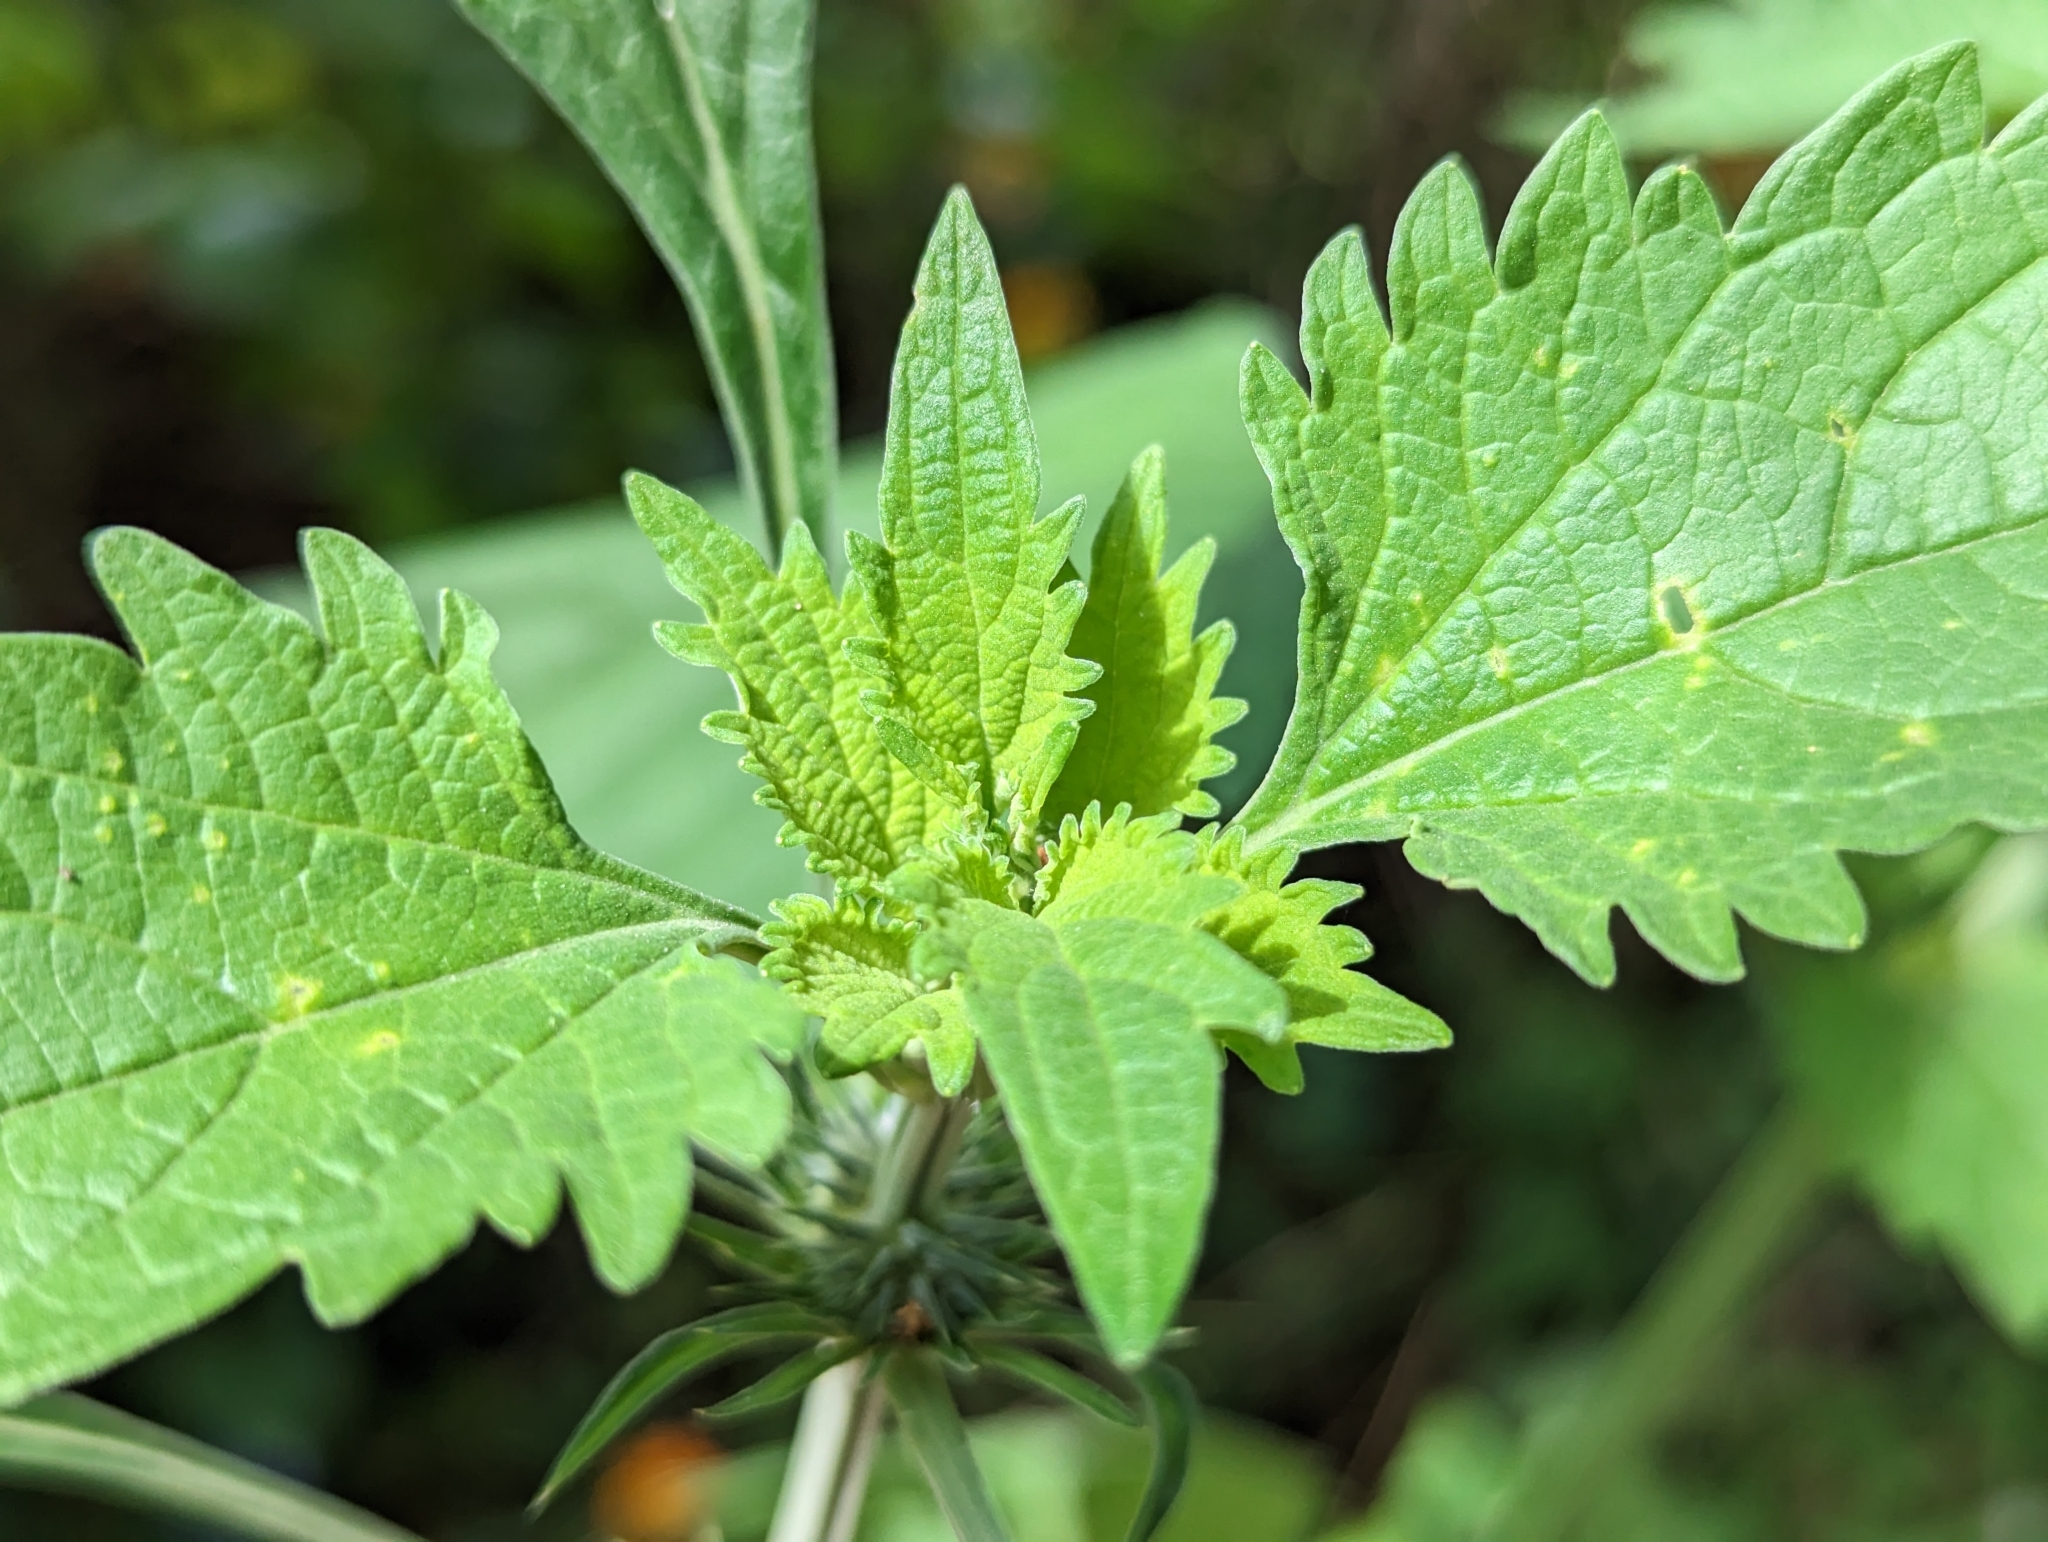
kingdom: Plantae
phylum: Tracheophyta
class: Magnoliopsida
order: Lamiales
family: Lamiaceae
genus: Leonotis
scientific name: Leonotis nepetifolia
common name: Christmas candlestick
